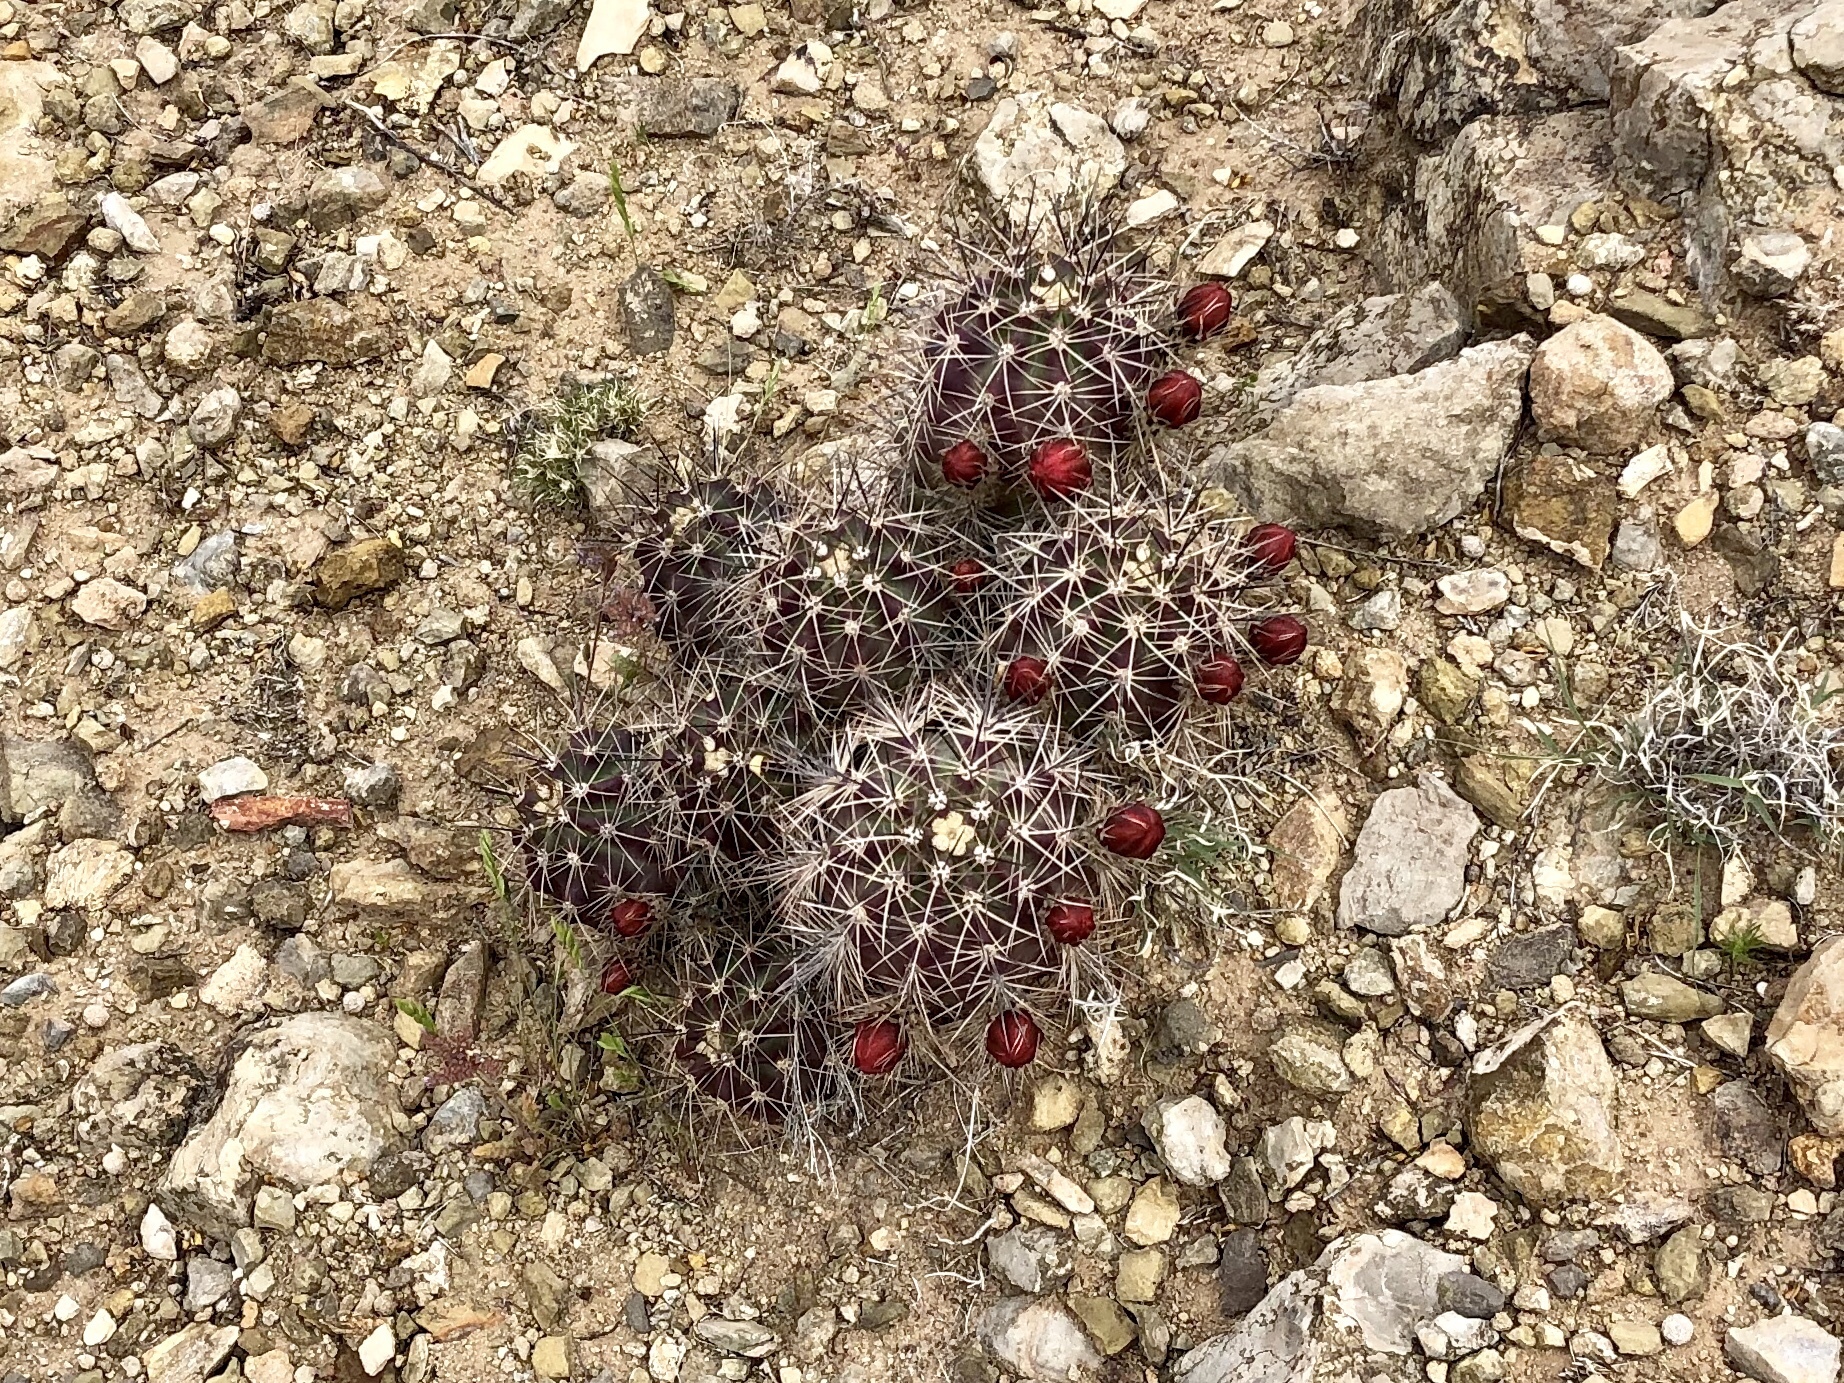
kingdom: Plantae
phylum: Tracheophyta
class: Magnoliopsida
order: Caryophyllales
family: Cactaceae
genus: Echinocereus
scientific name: Echinocereus coccineus
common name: Scarlet hedgehog cactus
